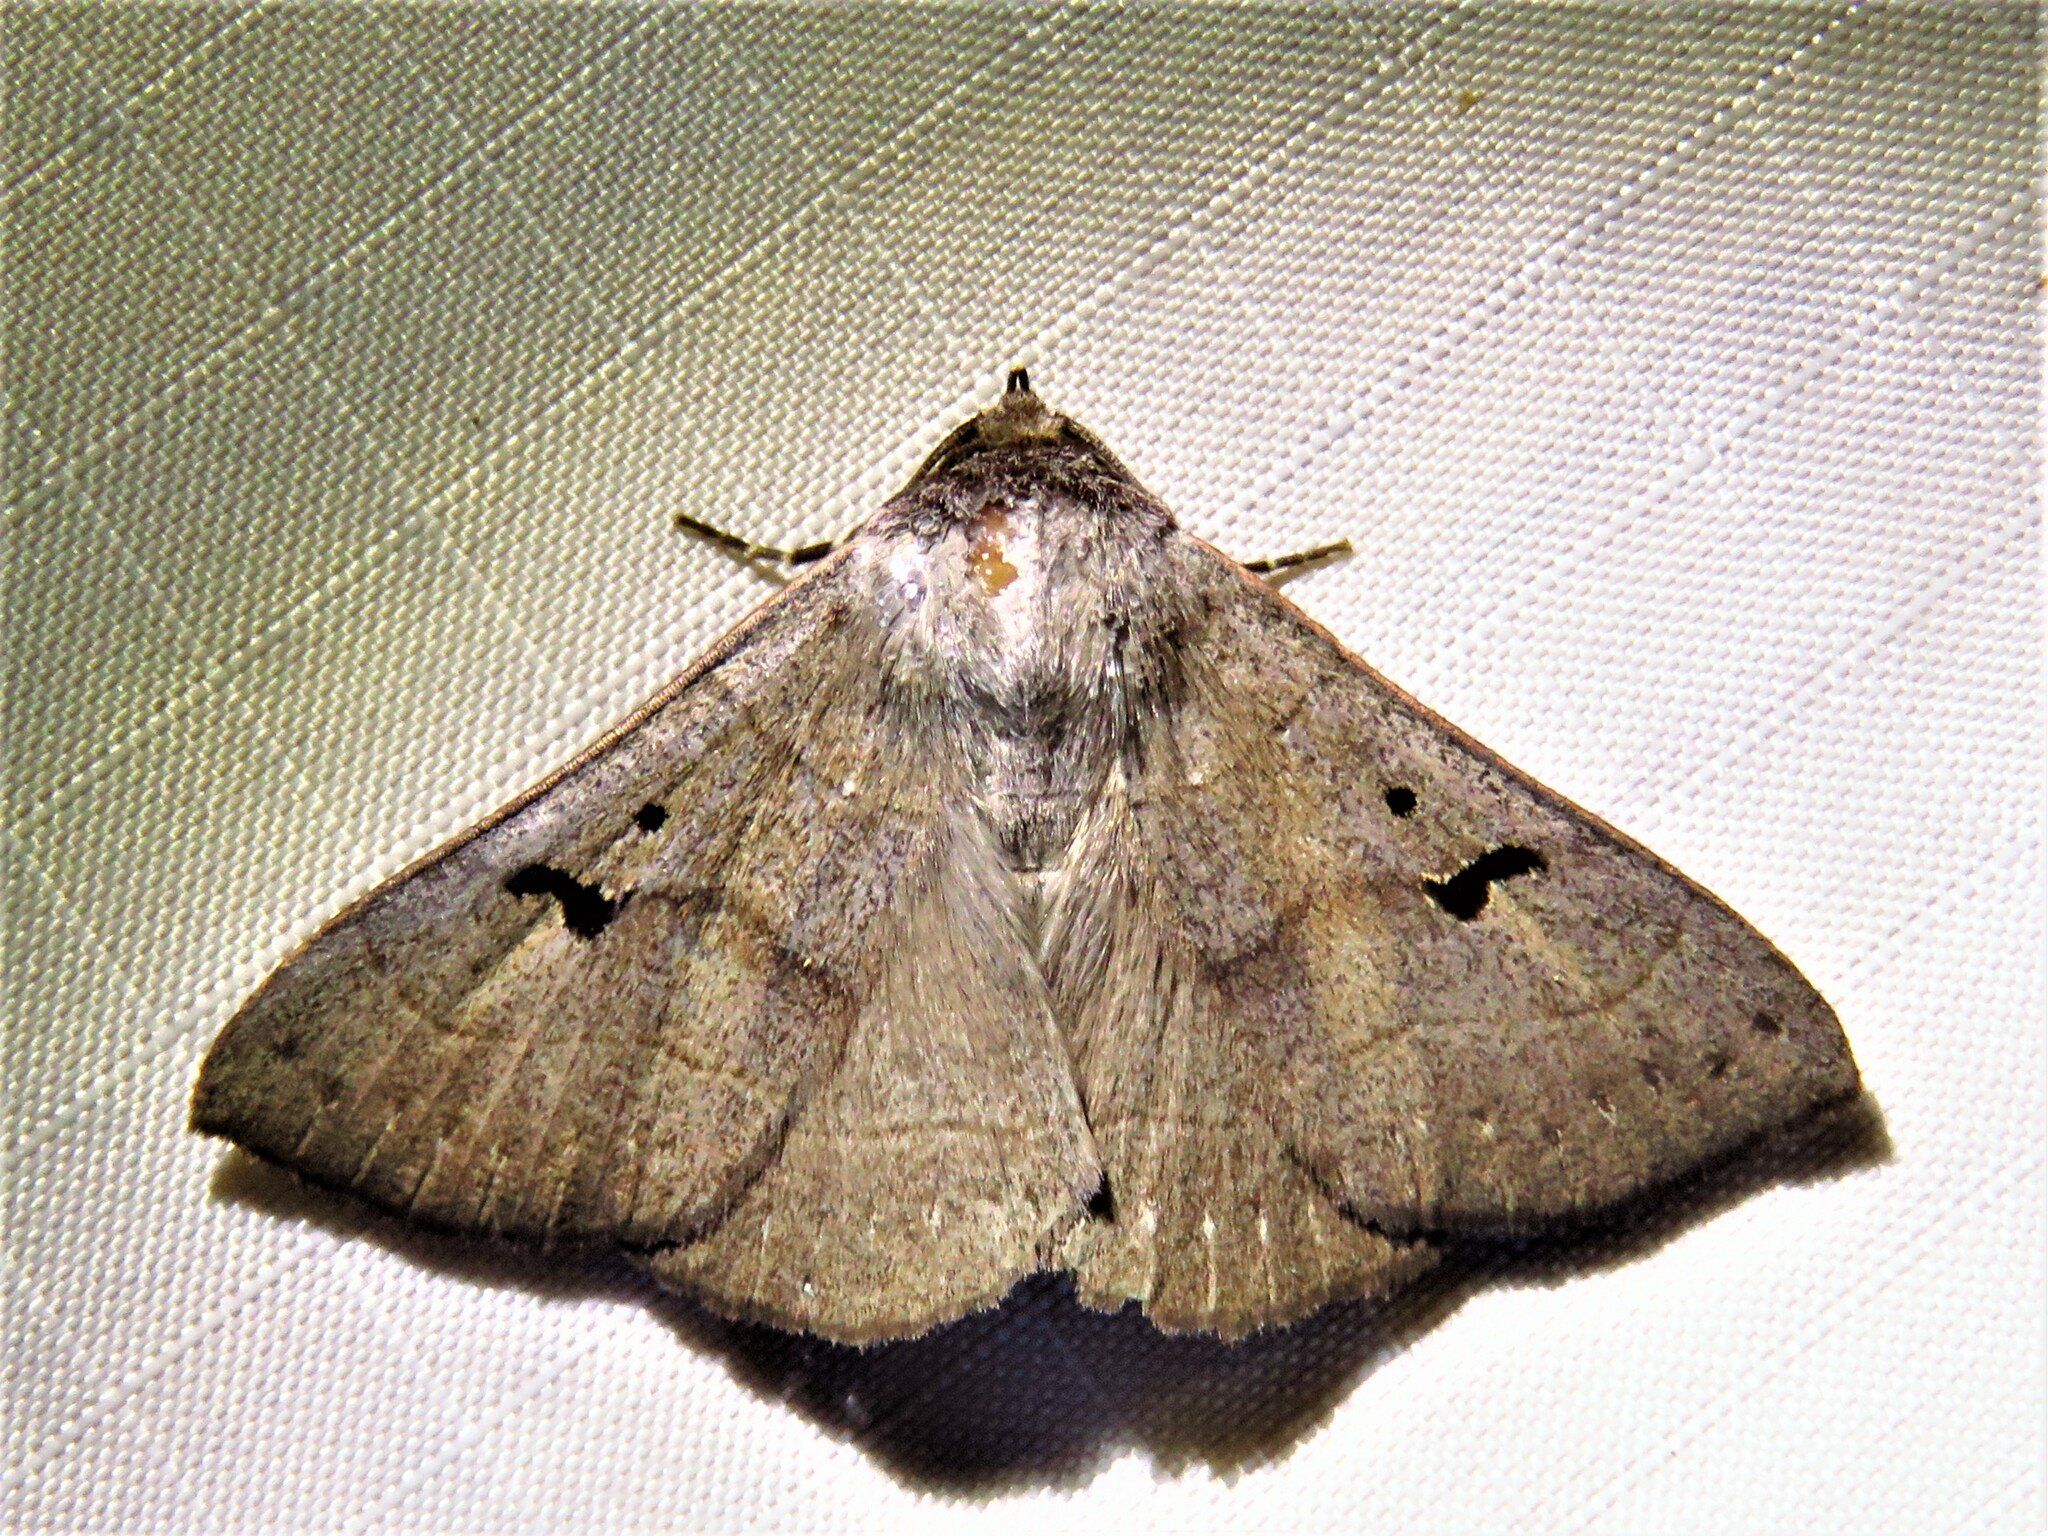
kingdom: Animalia
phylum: Arthropoda
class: Insecta
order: Lepidoptera
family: Erebidae
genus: Panopoda
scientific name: Panopoda carneicosta
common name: Brown panopoda moth
